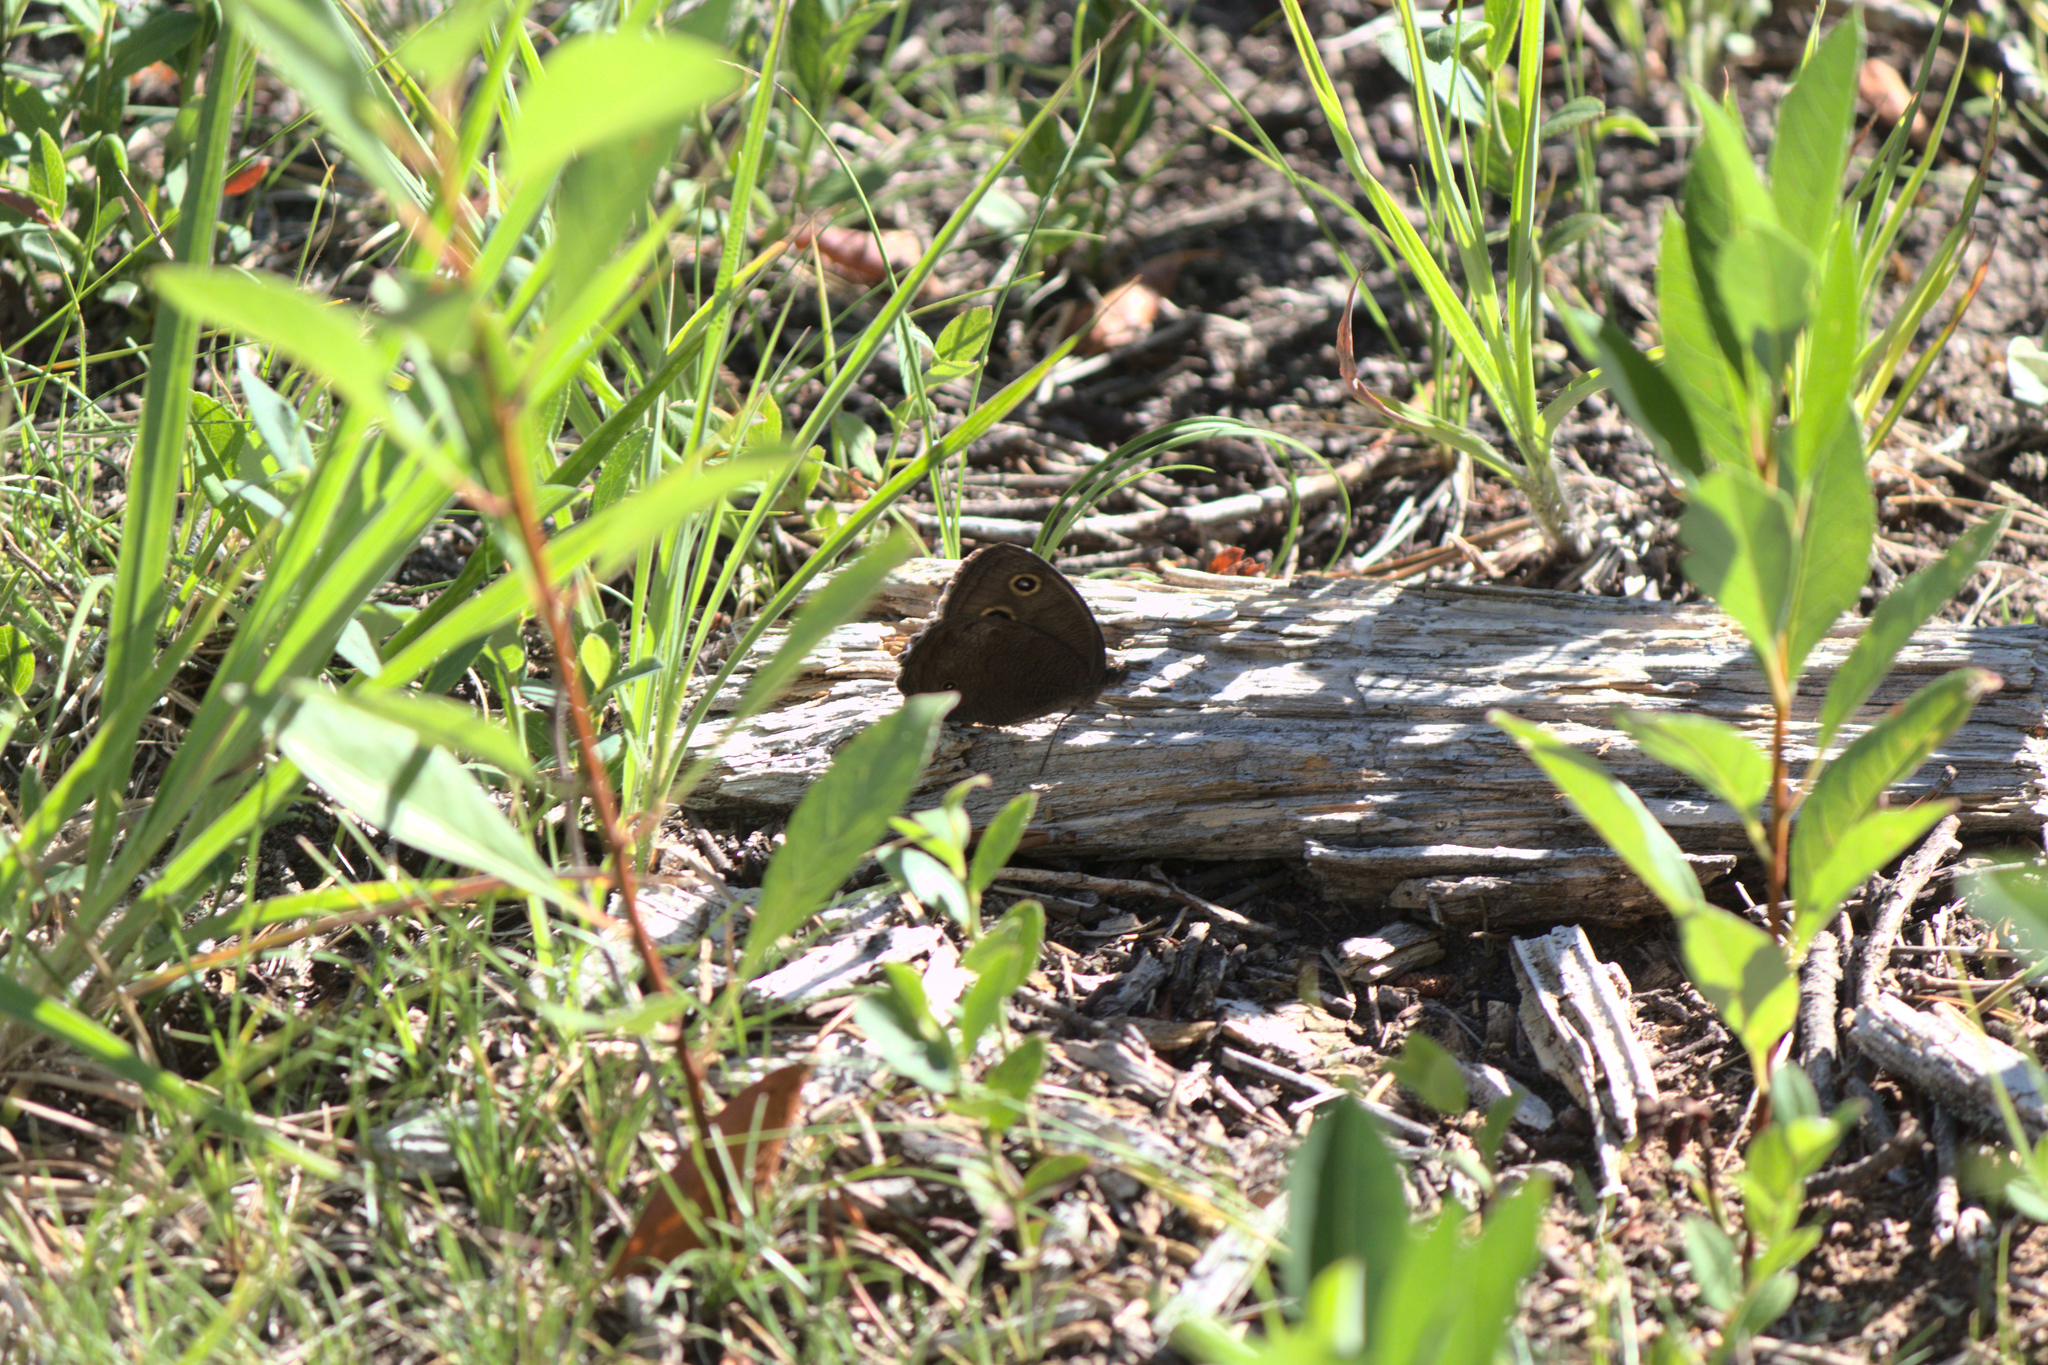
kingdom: Animalia
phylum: Arthropoda
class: Insecta
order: Lepidoptera
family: Nymphalidae
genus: Cercyonis
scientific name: Cercyonis pegala
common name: Common wood-nymph
